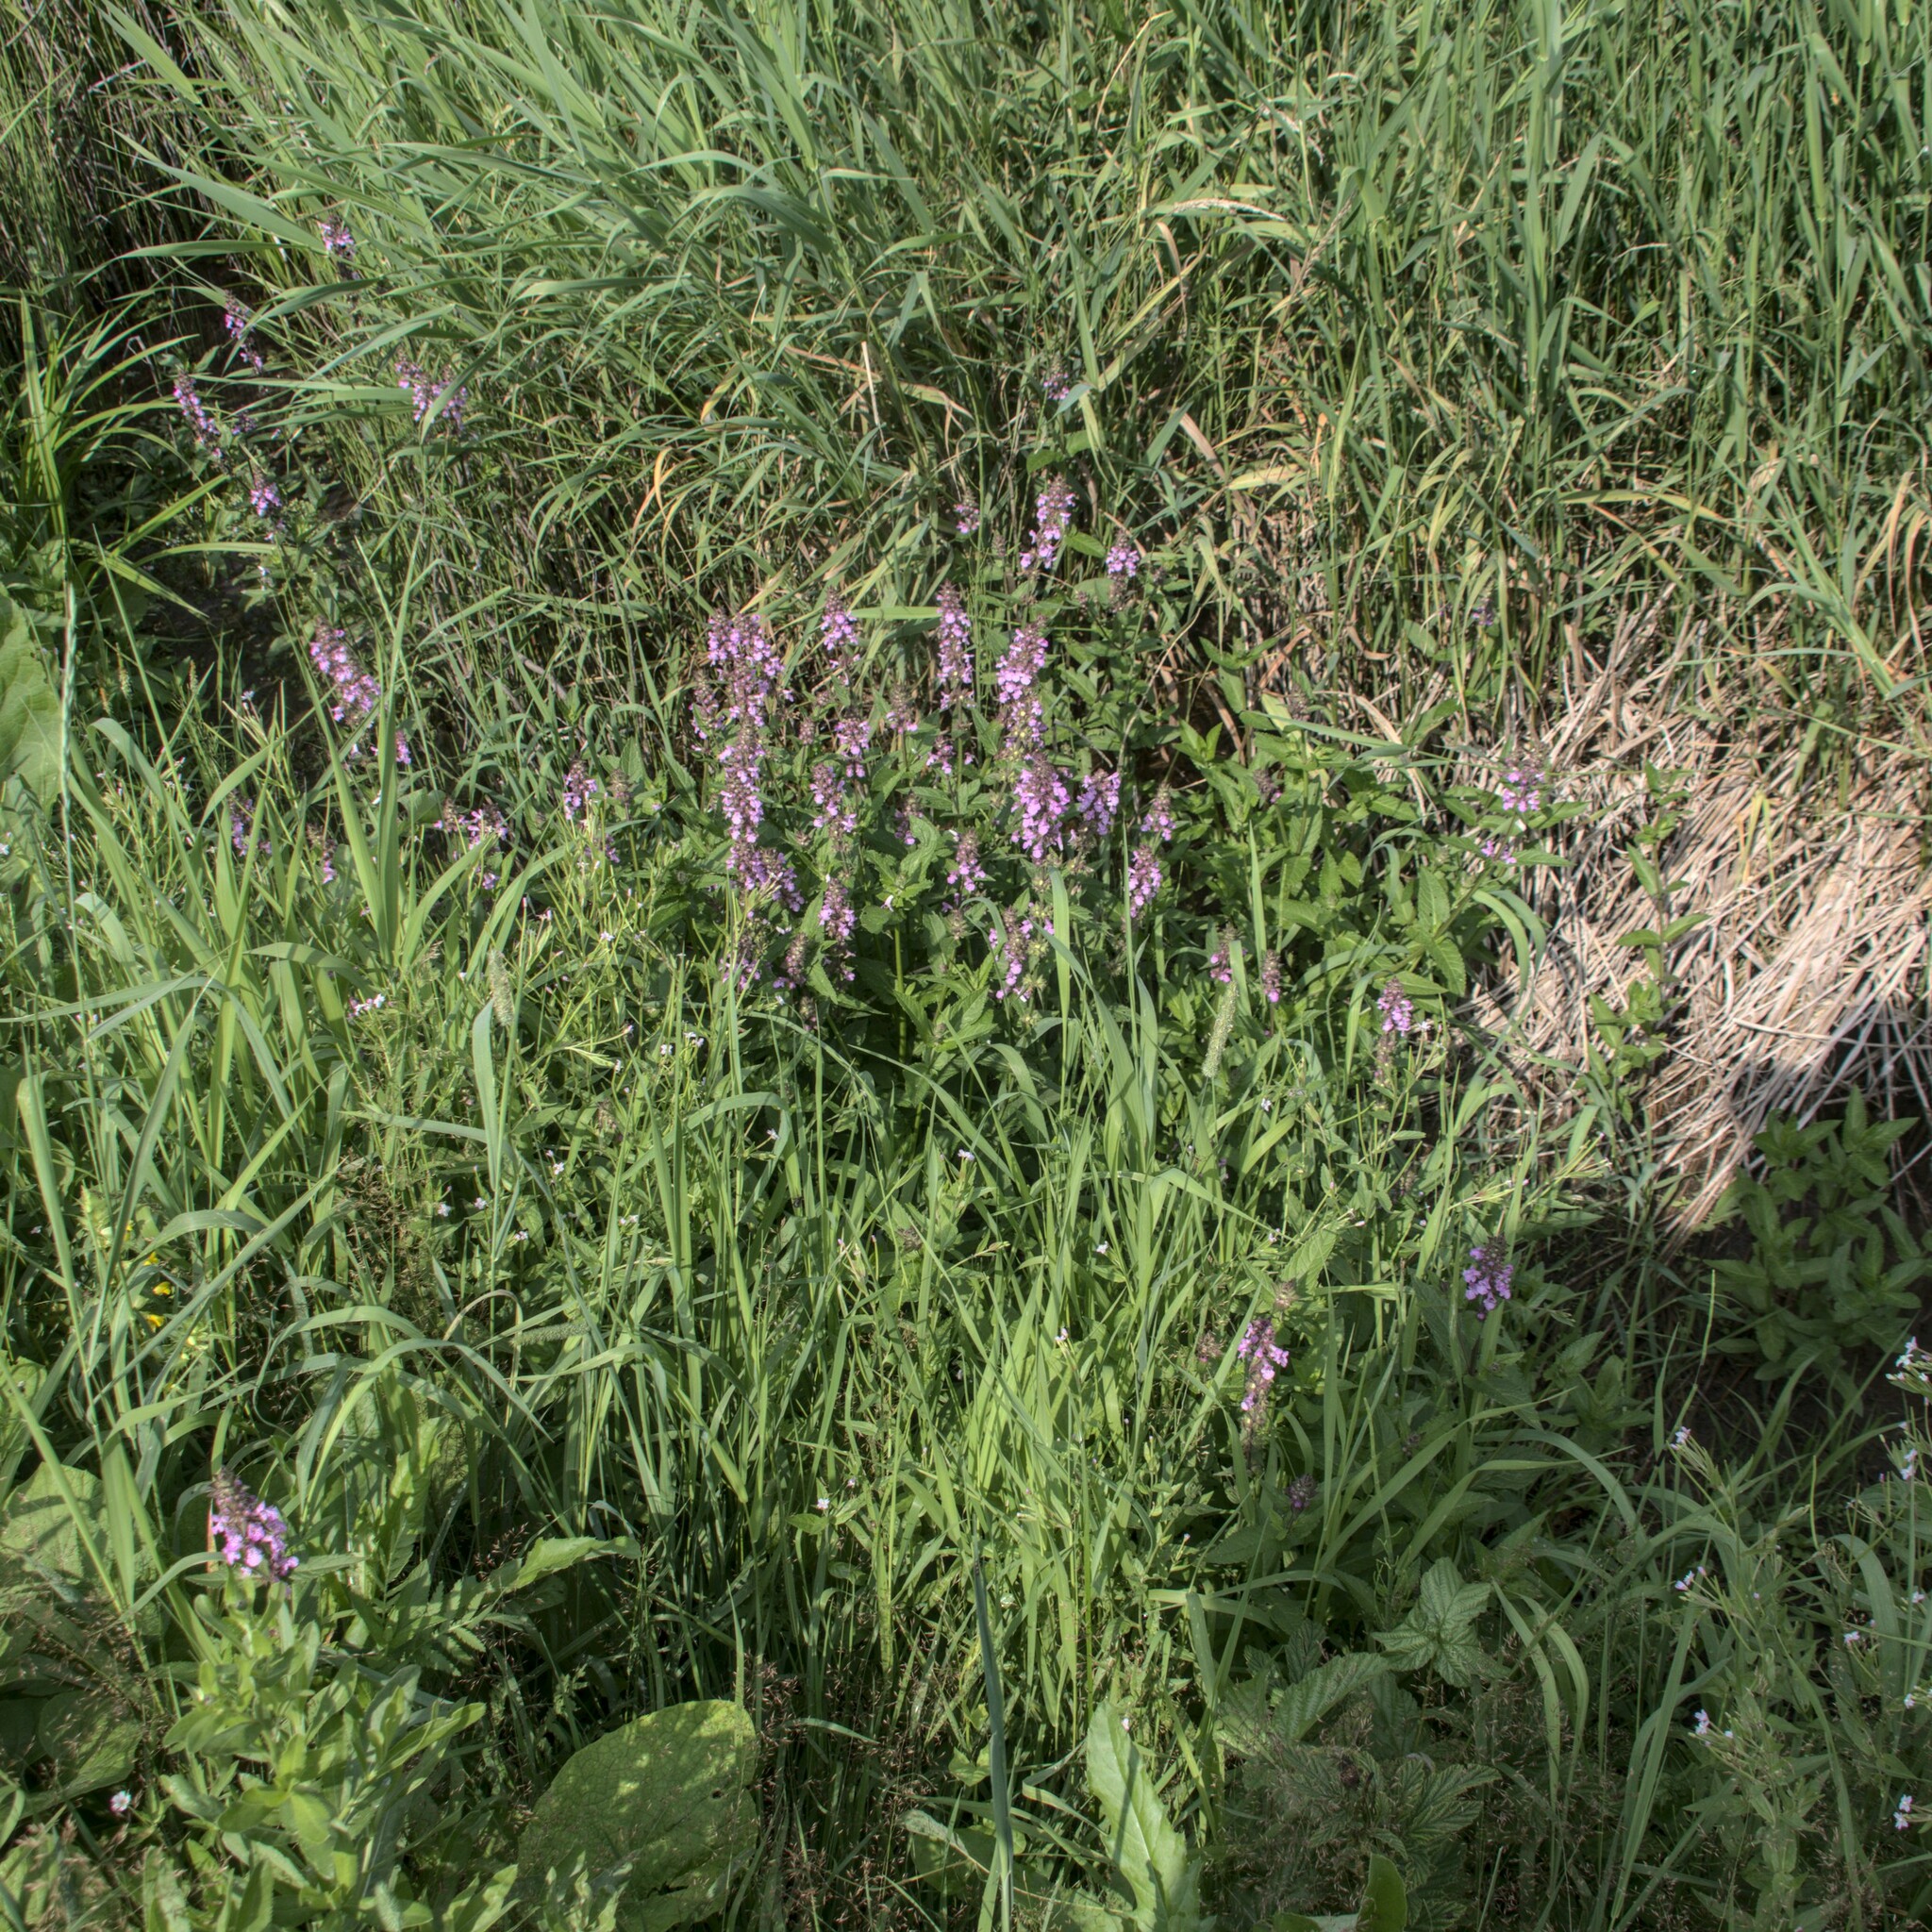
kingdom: Plantae
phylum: Tracheophyta
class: Magnoliopsida
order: Lamiales
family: Lamiaceae
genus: Stachys
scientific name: Stachys palustris
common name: Marsh woundwort
